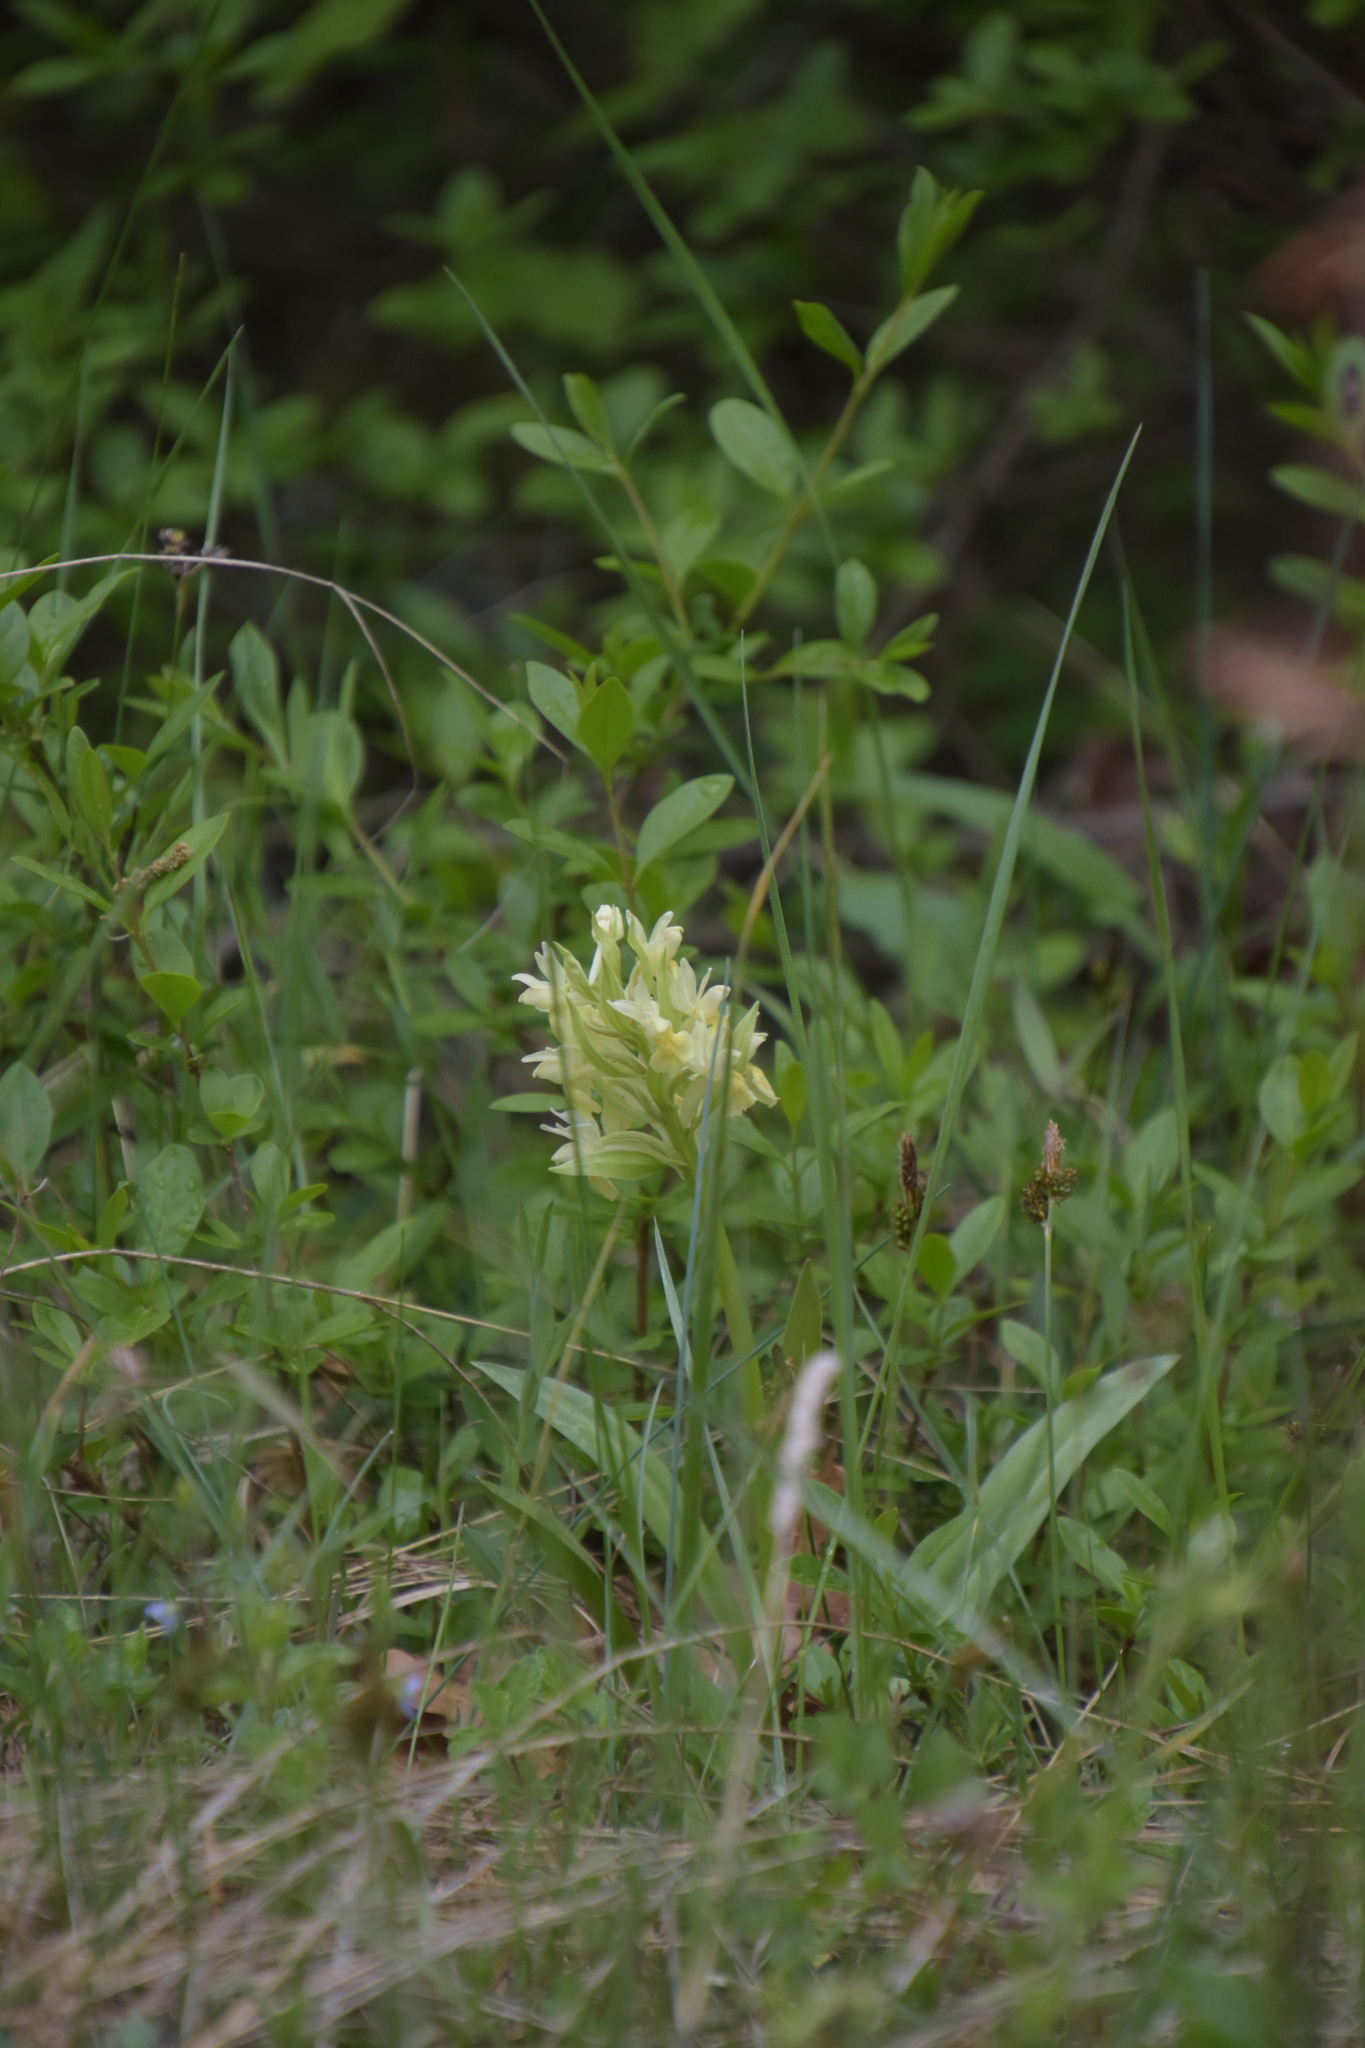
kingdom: Plantae
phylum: Tracheophyta
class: Liliopsida
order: Asparagales
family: Orchidaceae
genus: Dactylorhiza
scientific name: Dactylorhiza sambucina
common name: Elder-flowered orchid
